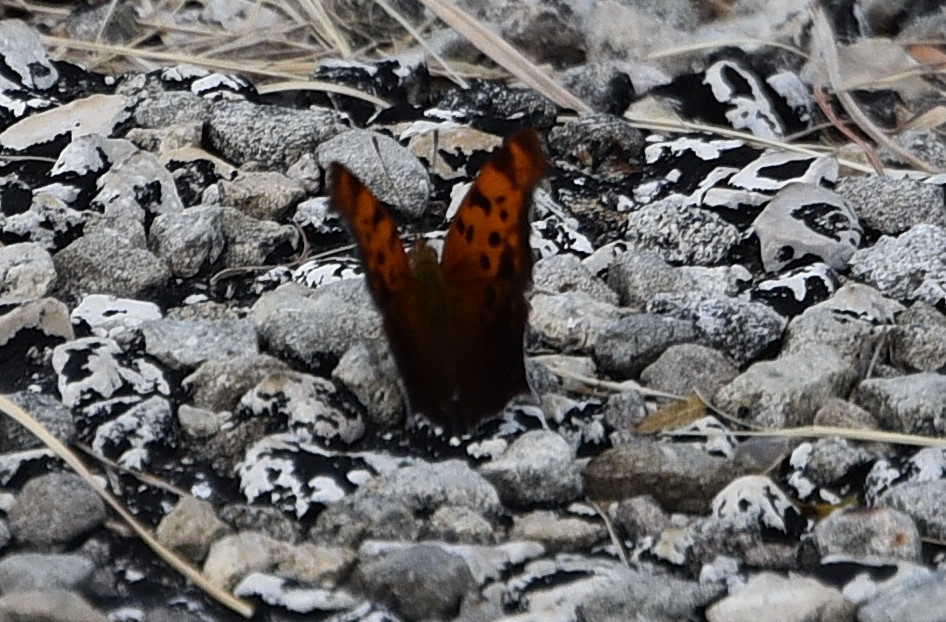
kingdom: Animalia
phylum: Arthropoda
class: Insecta
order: Lepidoptera
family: Nymphalidae
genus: Polygonia
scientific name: Polygonia interrogationis
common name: Question mark
